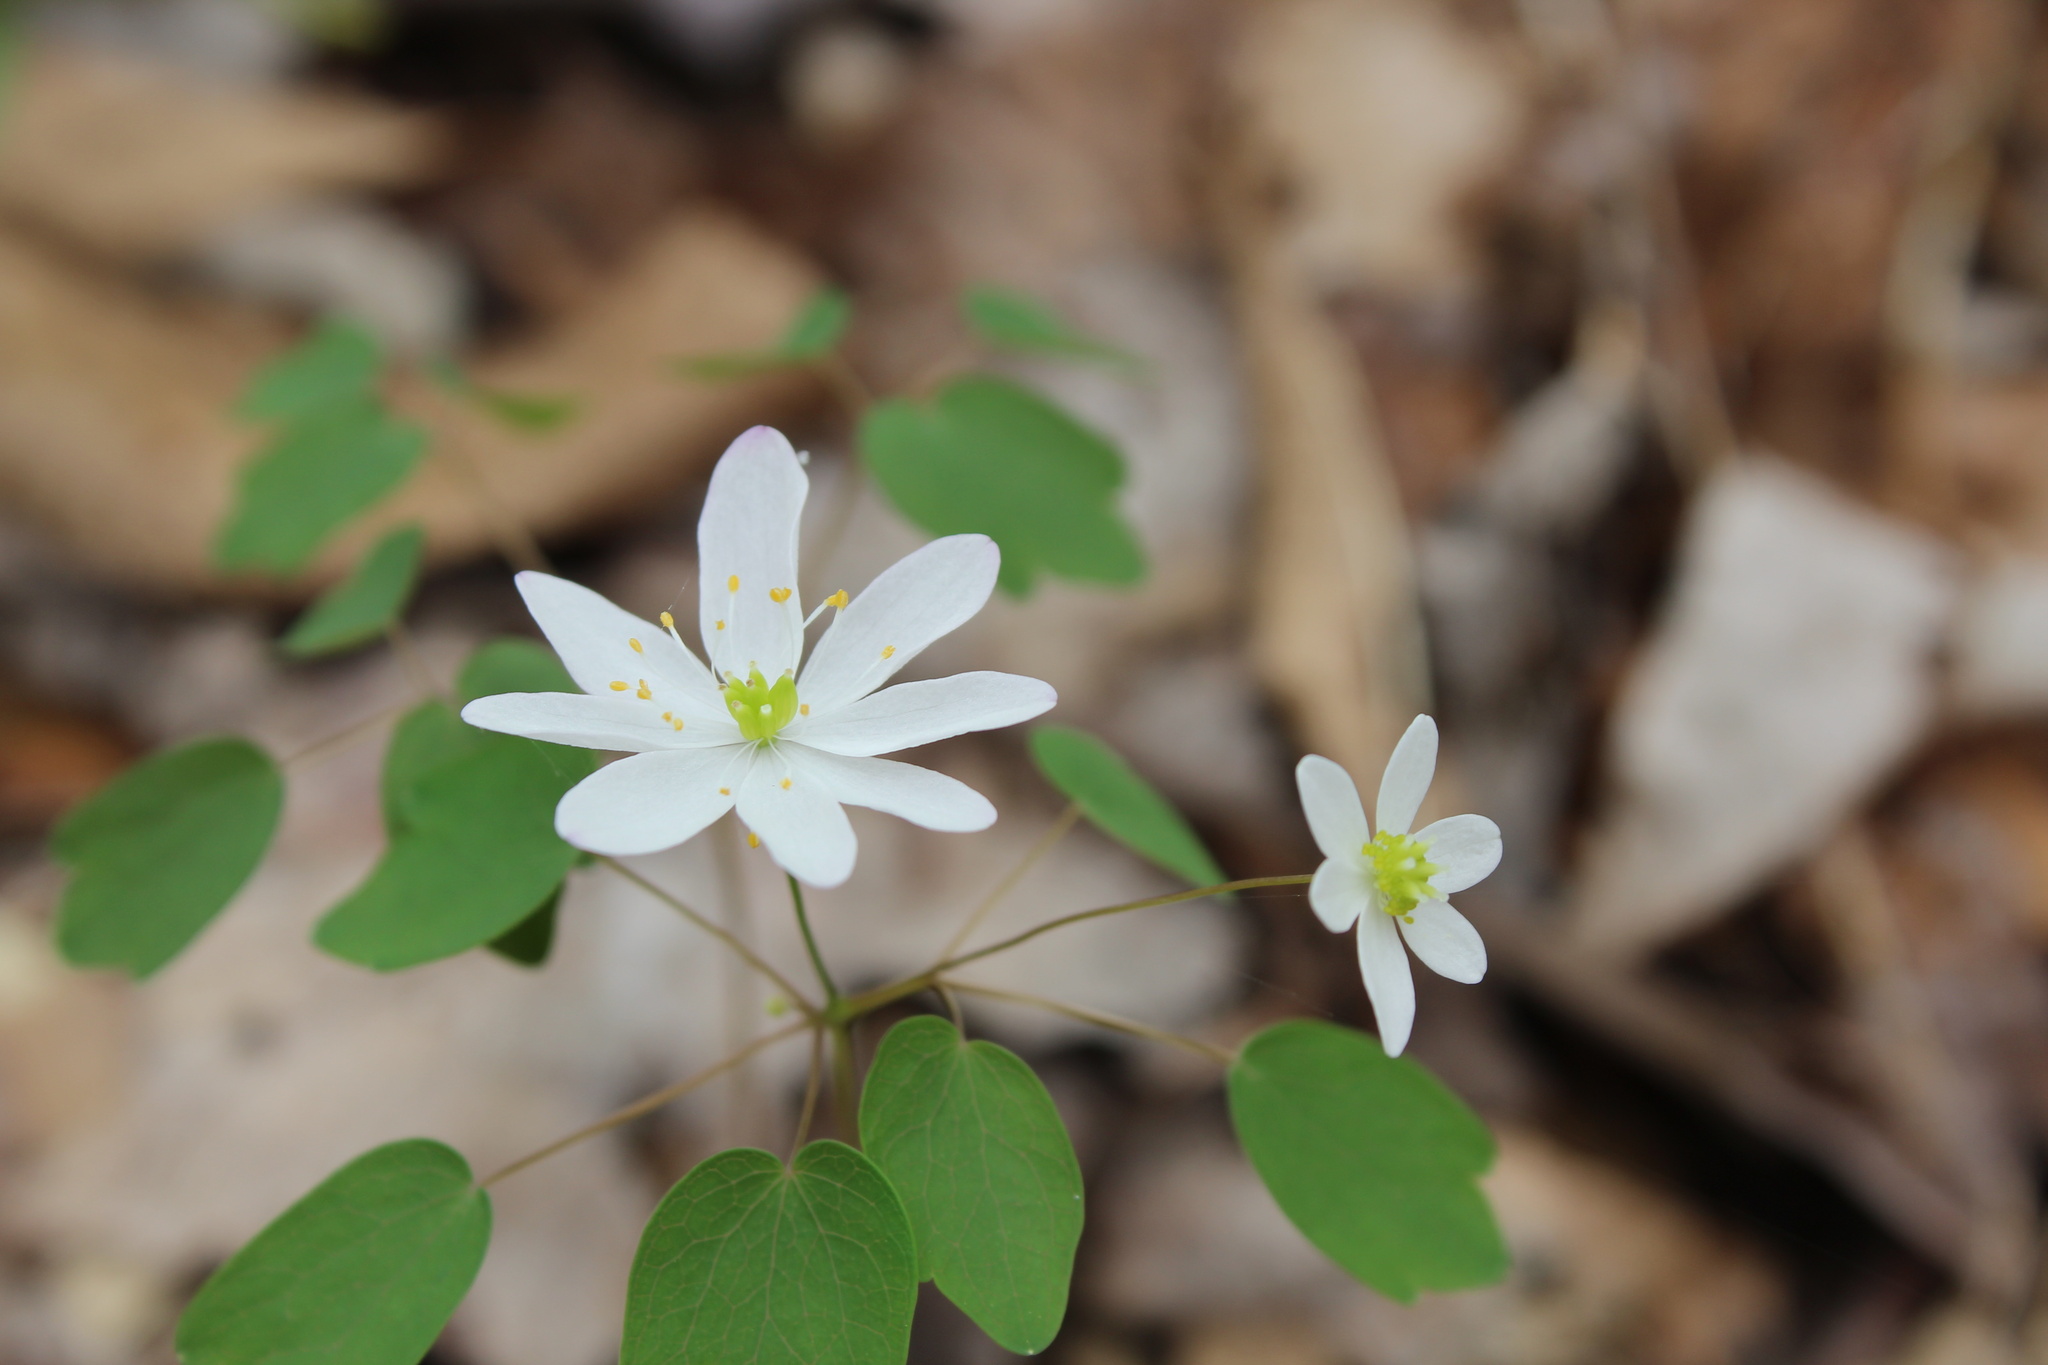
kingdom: Plantae
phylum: Tracheophyta
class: Magnoliopsida
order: Ranunculales
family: Ranunculaceae
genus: Thalictrum
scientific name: Thalictrum thalictroides
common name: Rue-anemone
